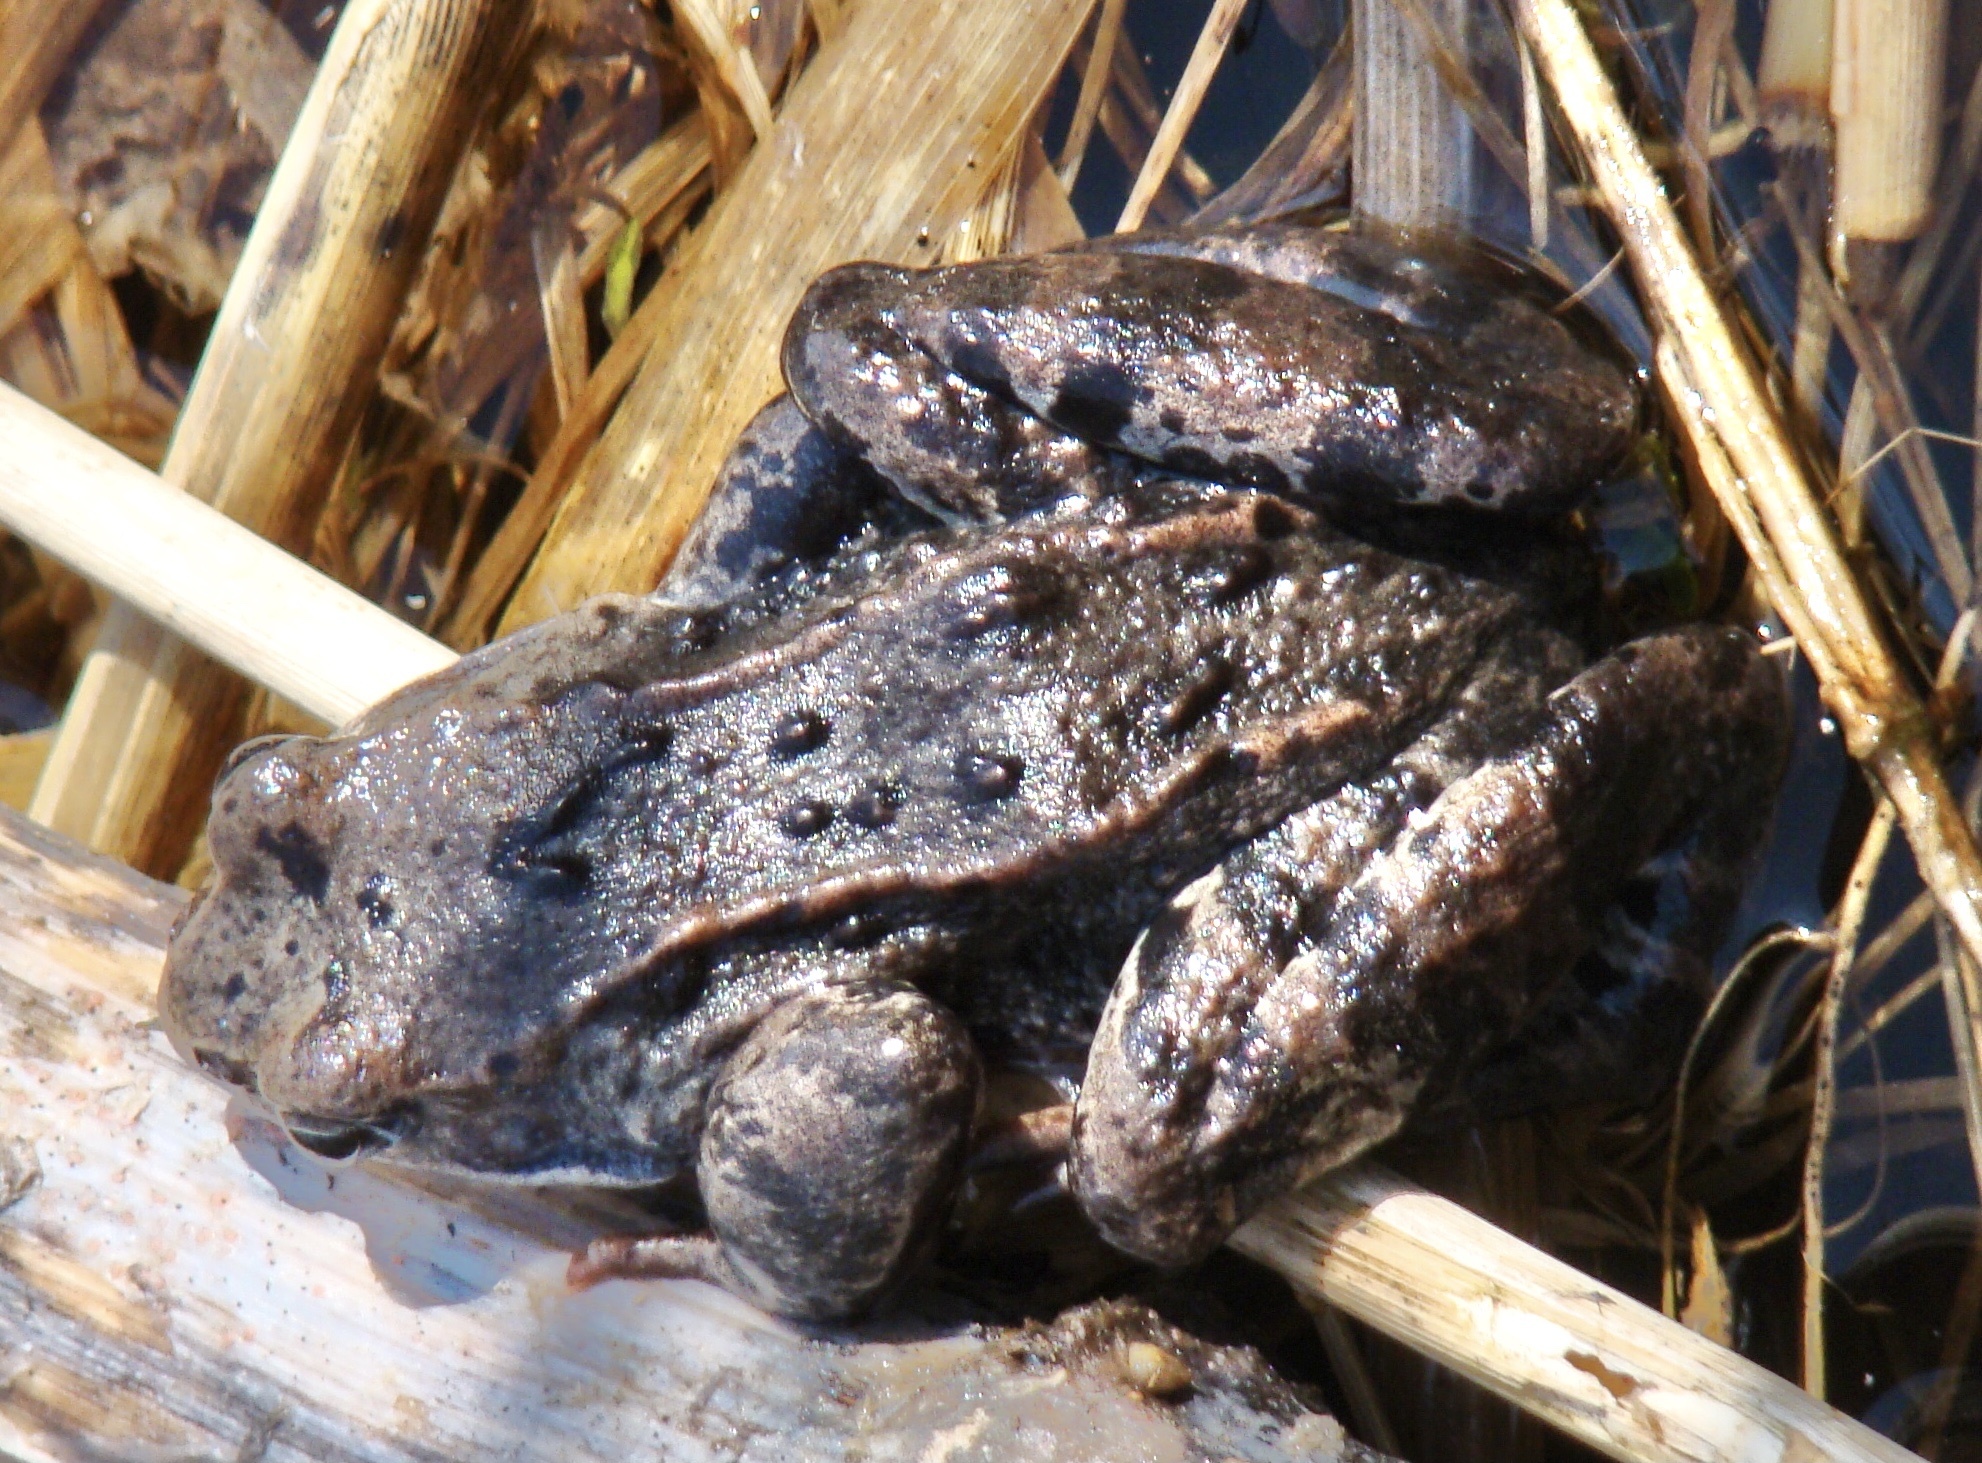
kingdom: Animalia
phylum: Chordata
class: Amphibia
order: Anura
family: Ranidae
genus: Rana
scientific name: Rana temporaria
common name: Common frog
